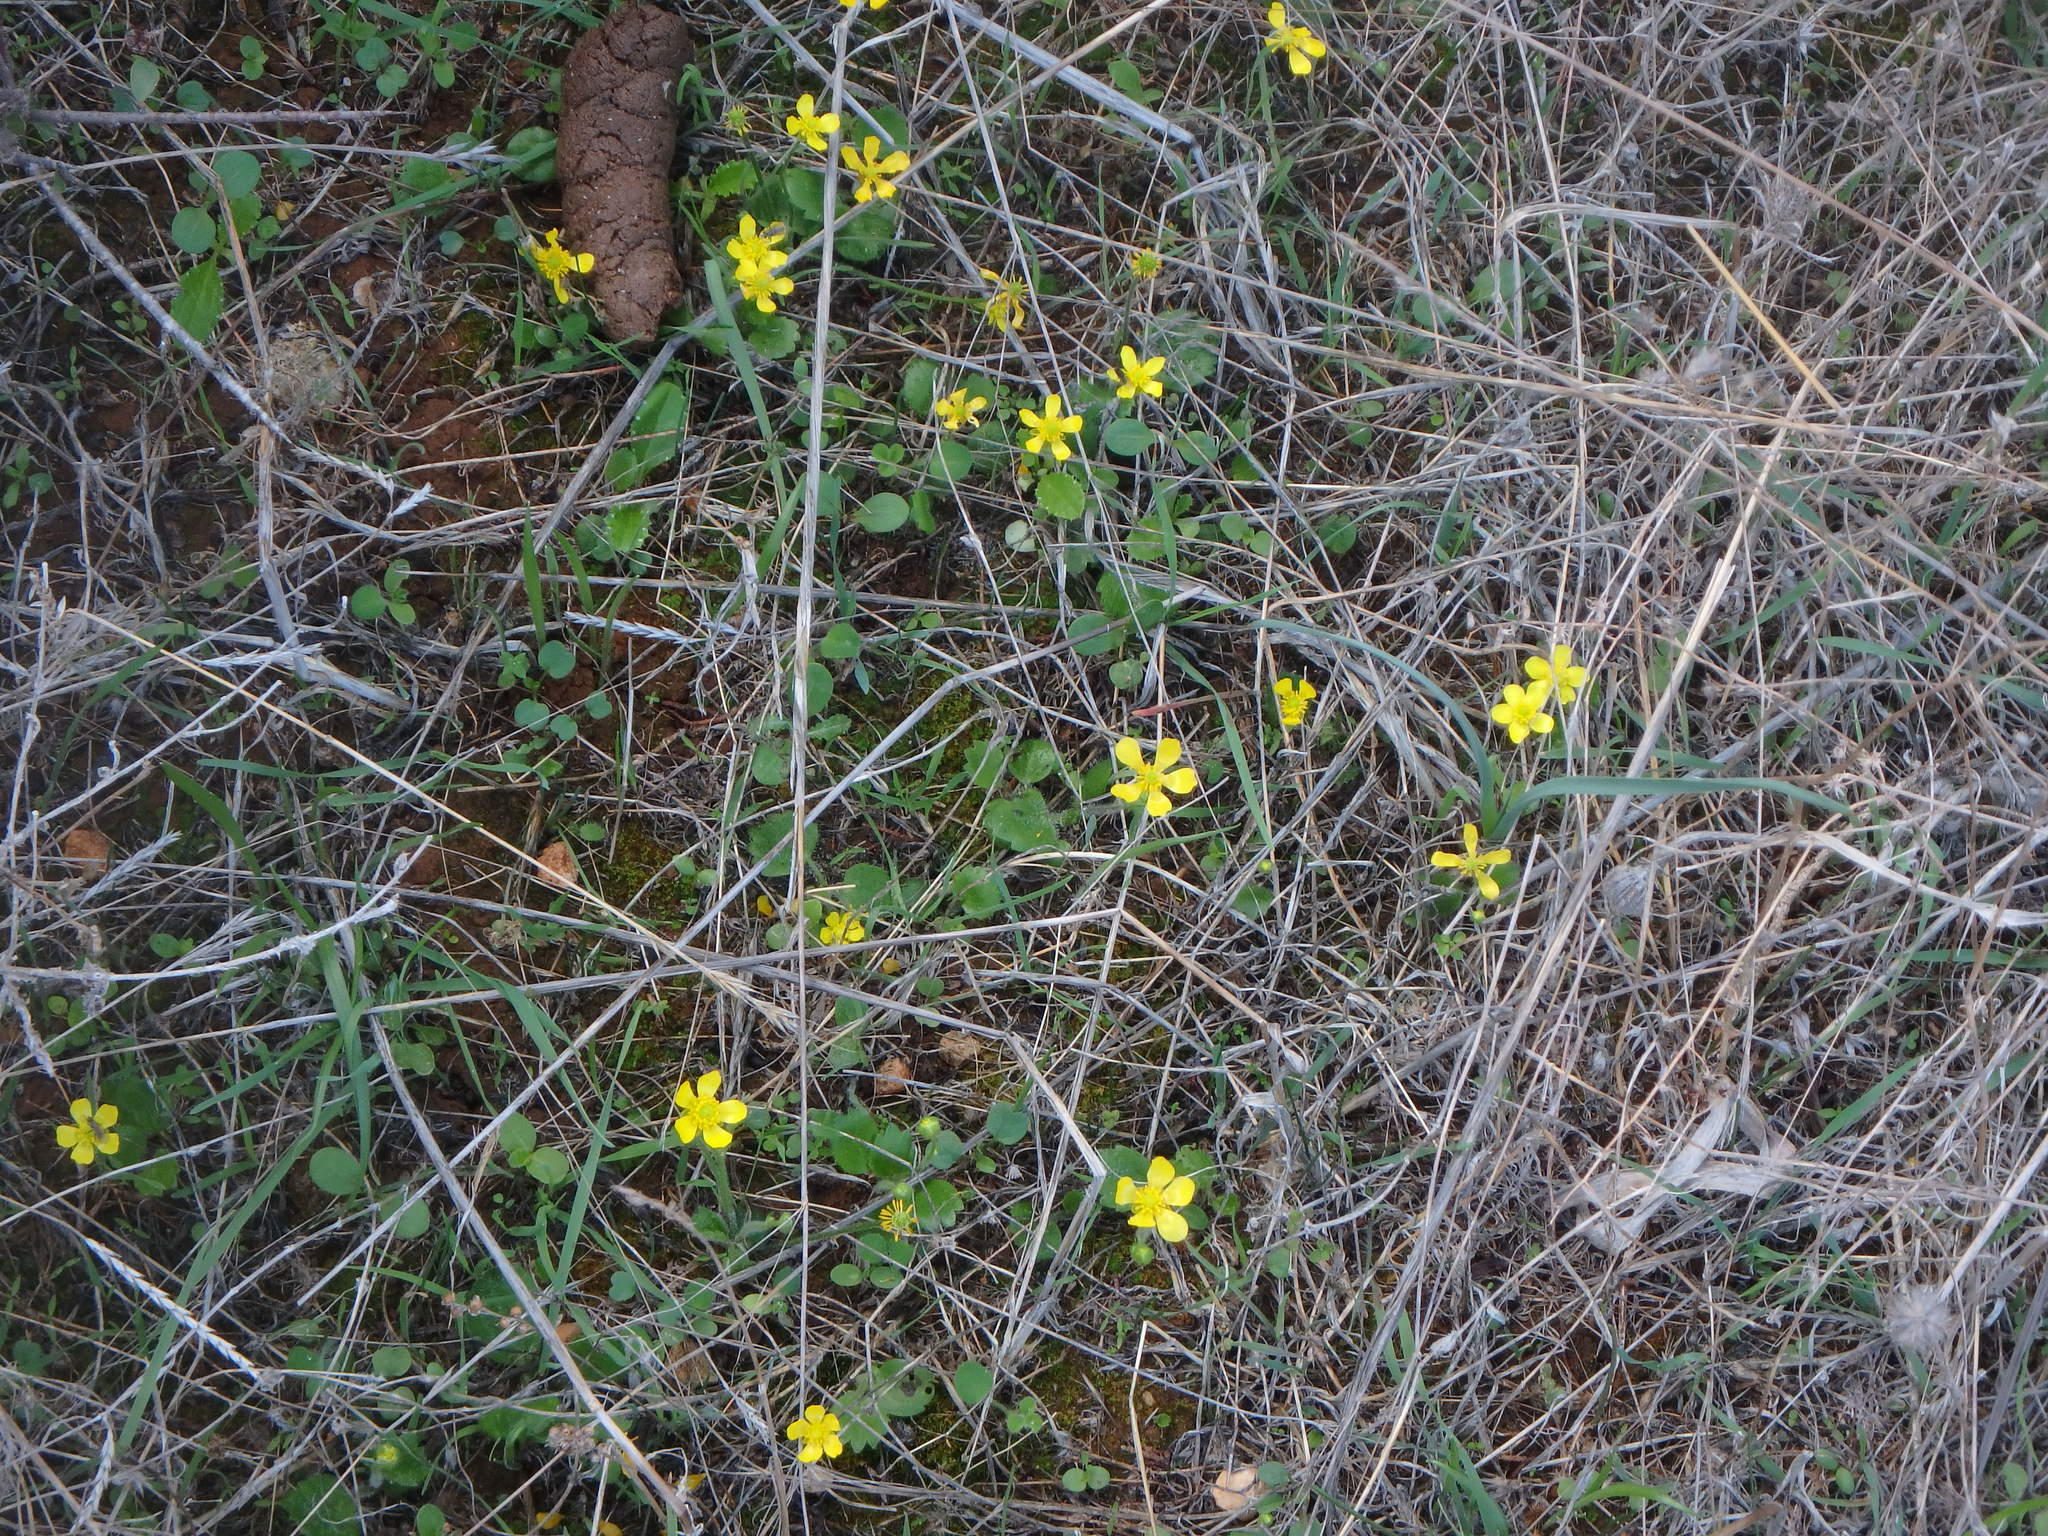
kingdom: Plantae
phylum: Tracheophyta
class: Magnoliopsida
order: Ranunculales
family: Ranunculaceae
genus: Ranunculus
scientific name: Ranunculus bullatus
